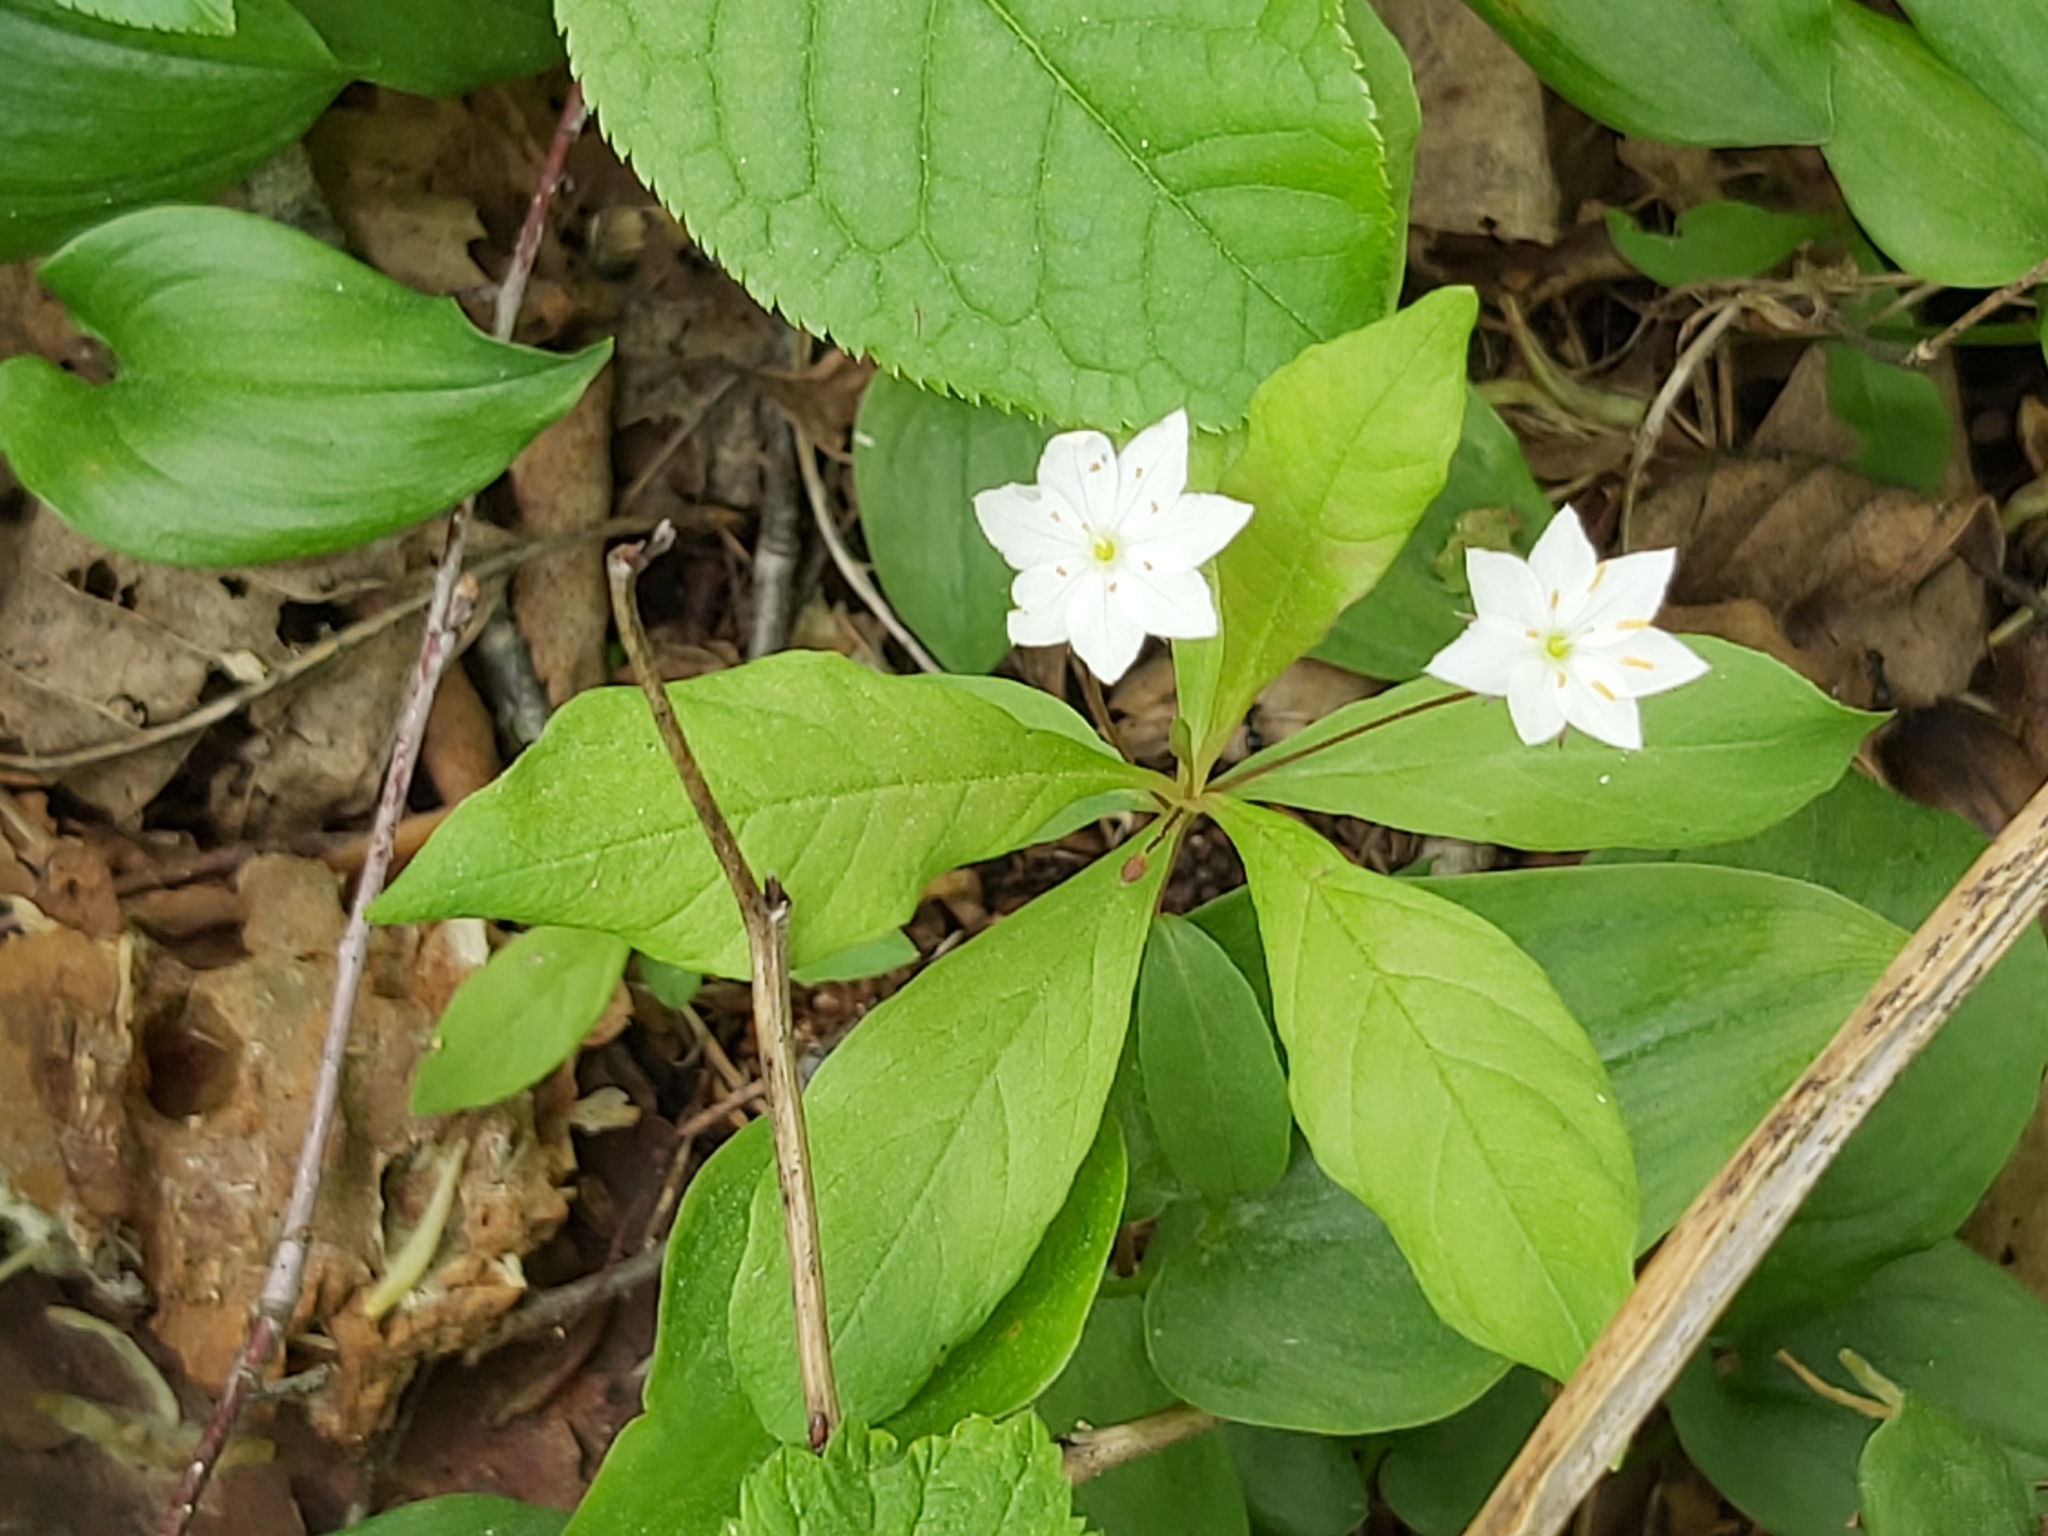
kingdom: Plantae
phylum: Tracheophyta
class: Magnoliopsida
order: Ericales
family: Primulaceae
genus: Lysimachia
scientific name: Lysimachia europaea
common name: Arctic starflower
